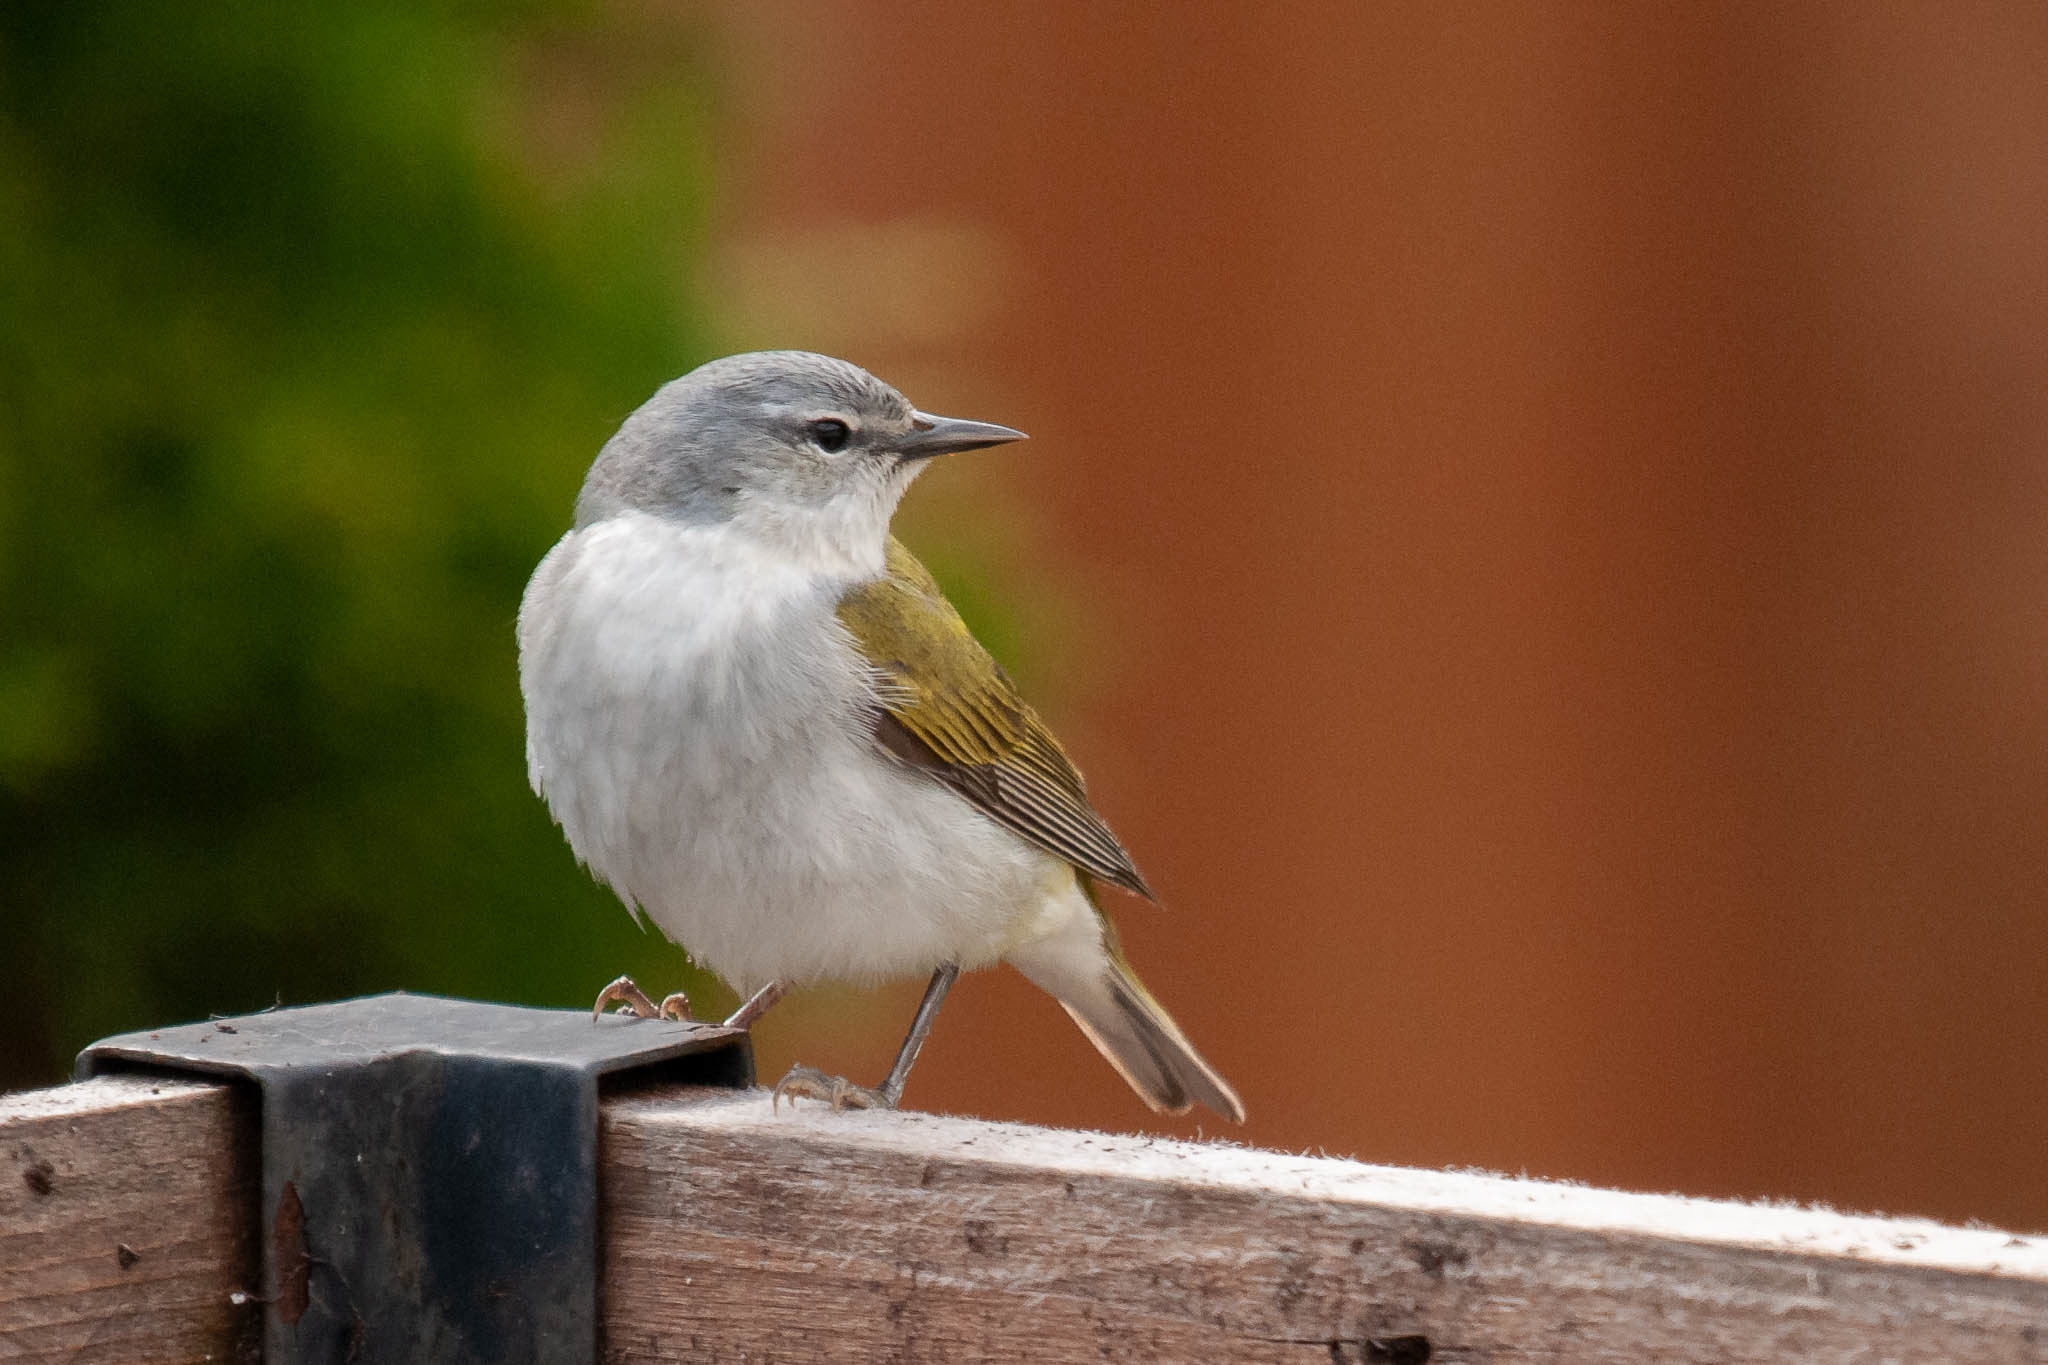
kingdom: Animalia
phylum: Chordata
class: Aves
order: Passeriformes
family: Parulidae
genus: Leiothlypis
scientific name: Leiothlypis peregrina
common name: Tennessee warbler
